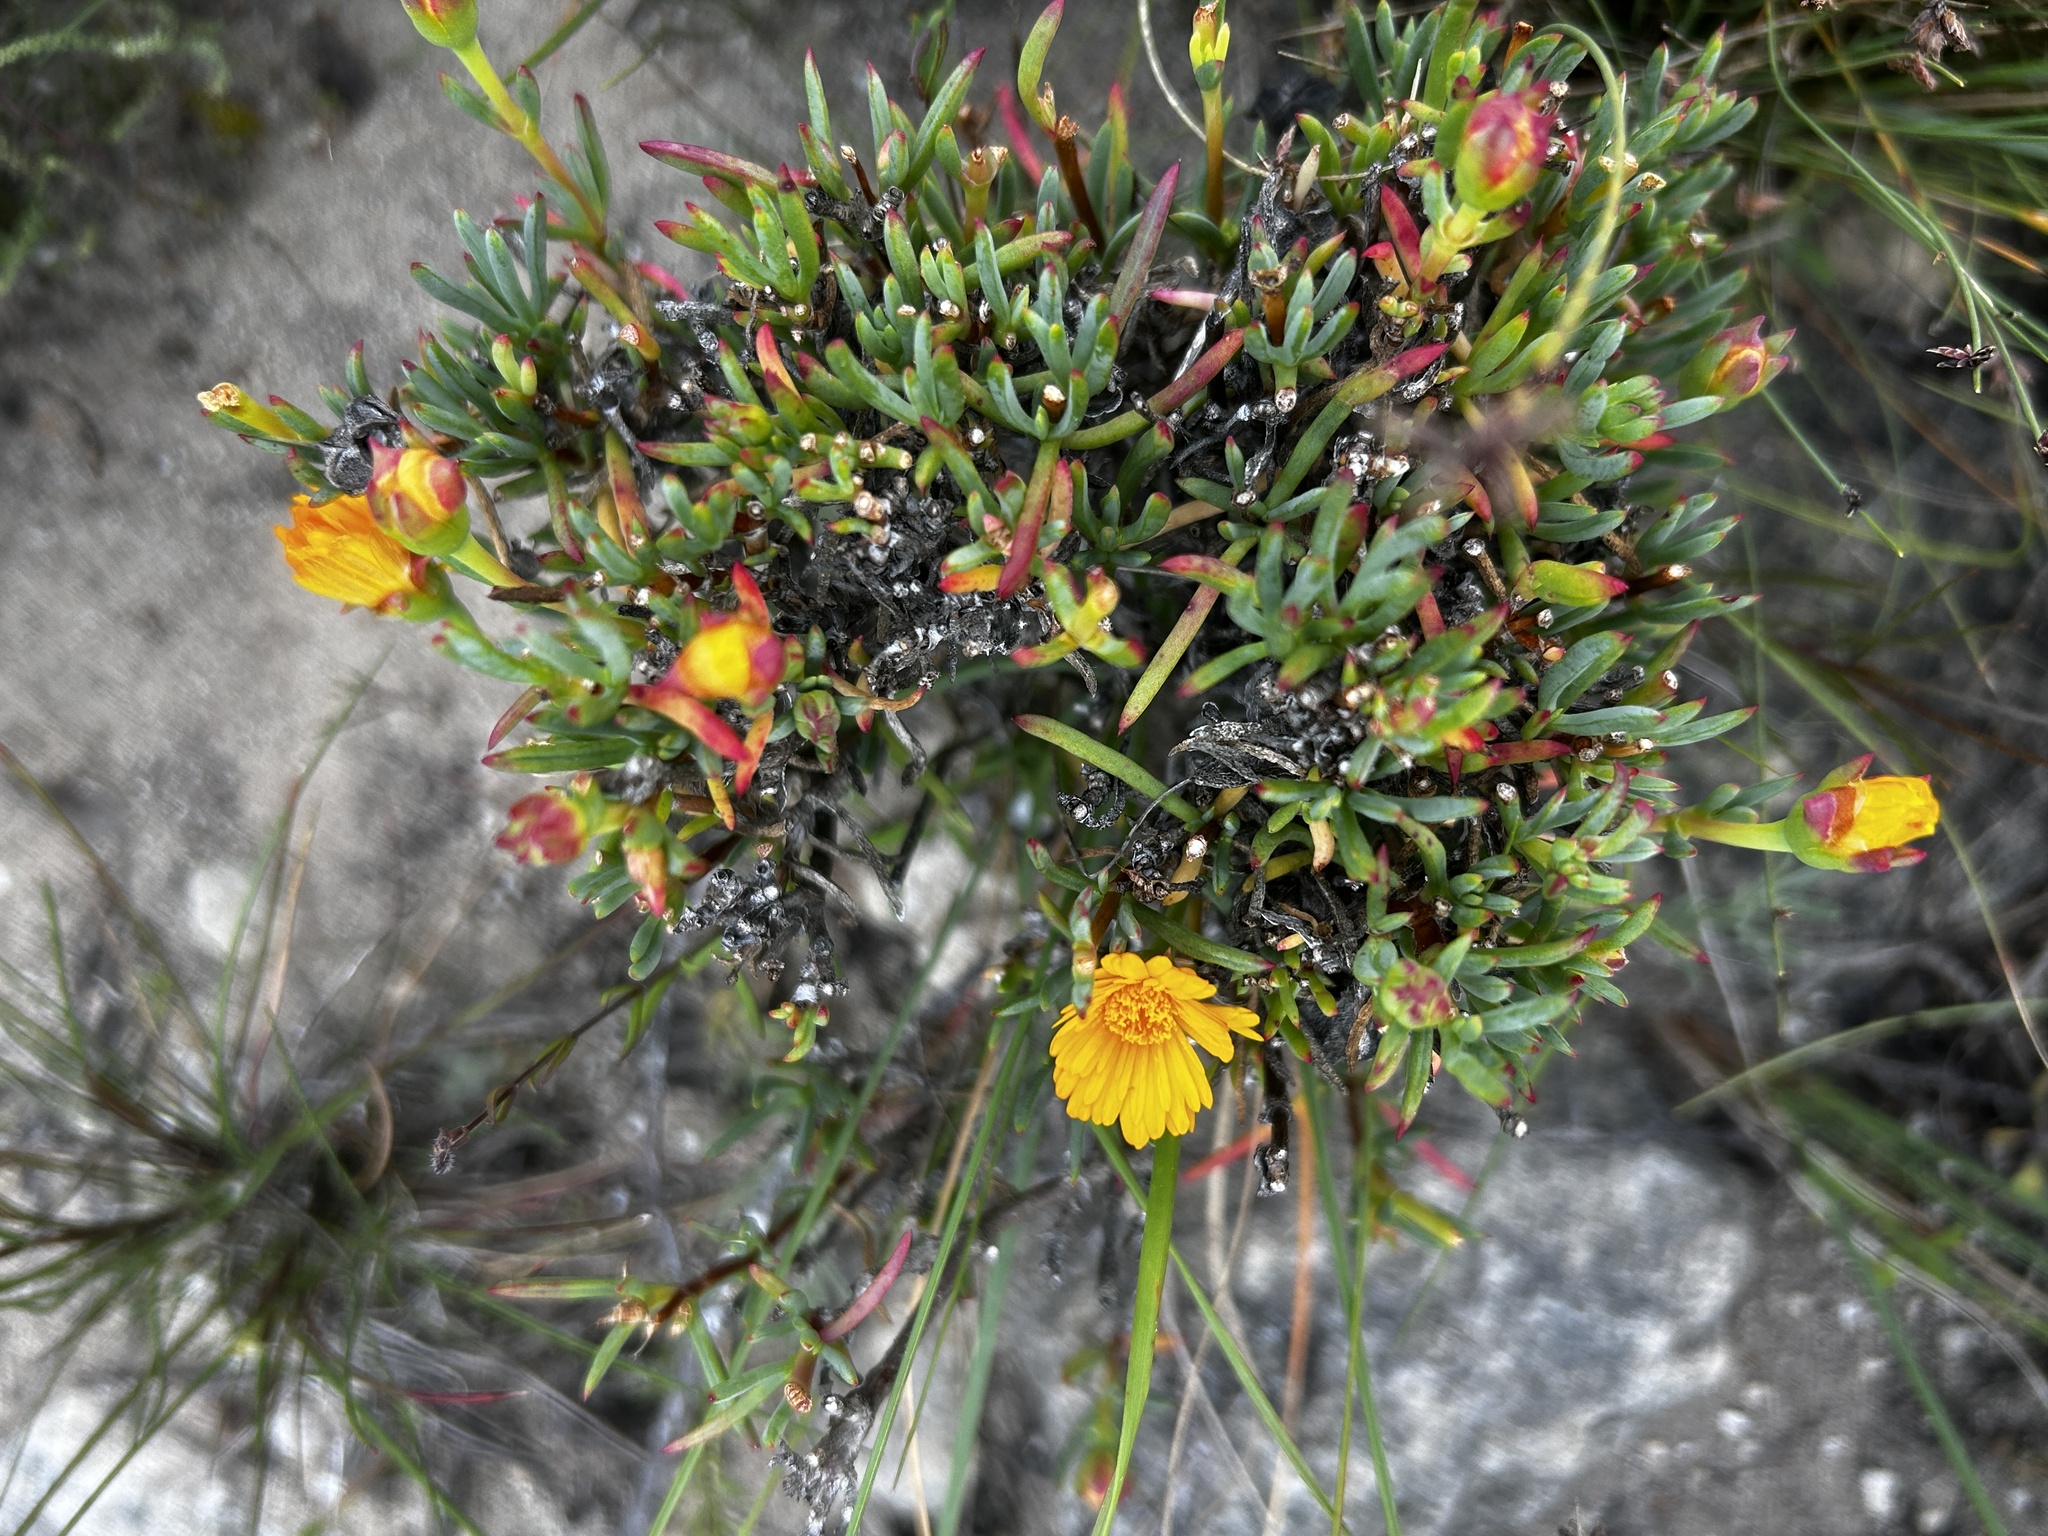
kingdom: Plantae
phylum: Tracheophyta
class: Magnoliopsida
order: Caryophyllales
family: Aizoaceae
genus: Lampranthus
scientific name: Lampranthus bicolor
